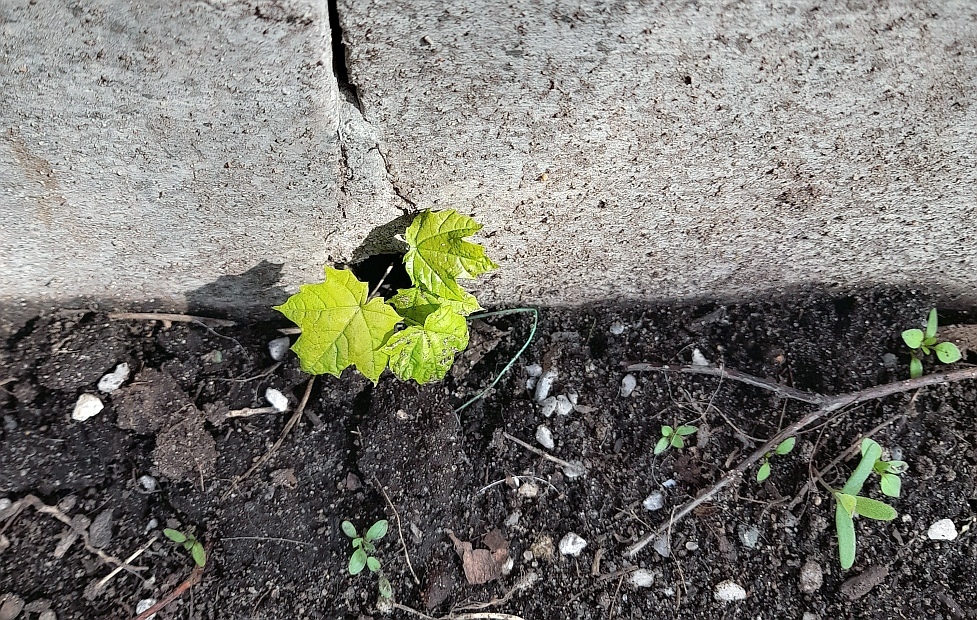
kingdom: Plantae
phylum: Tracheophyta
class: Magnoliopsida
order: Sapindales
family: Sapindaceae
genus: Acer
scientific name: Acer platanoides
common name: Norway maple
